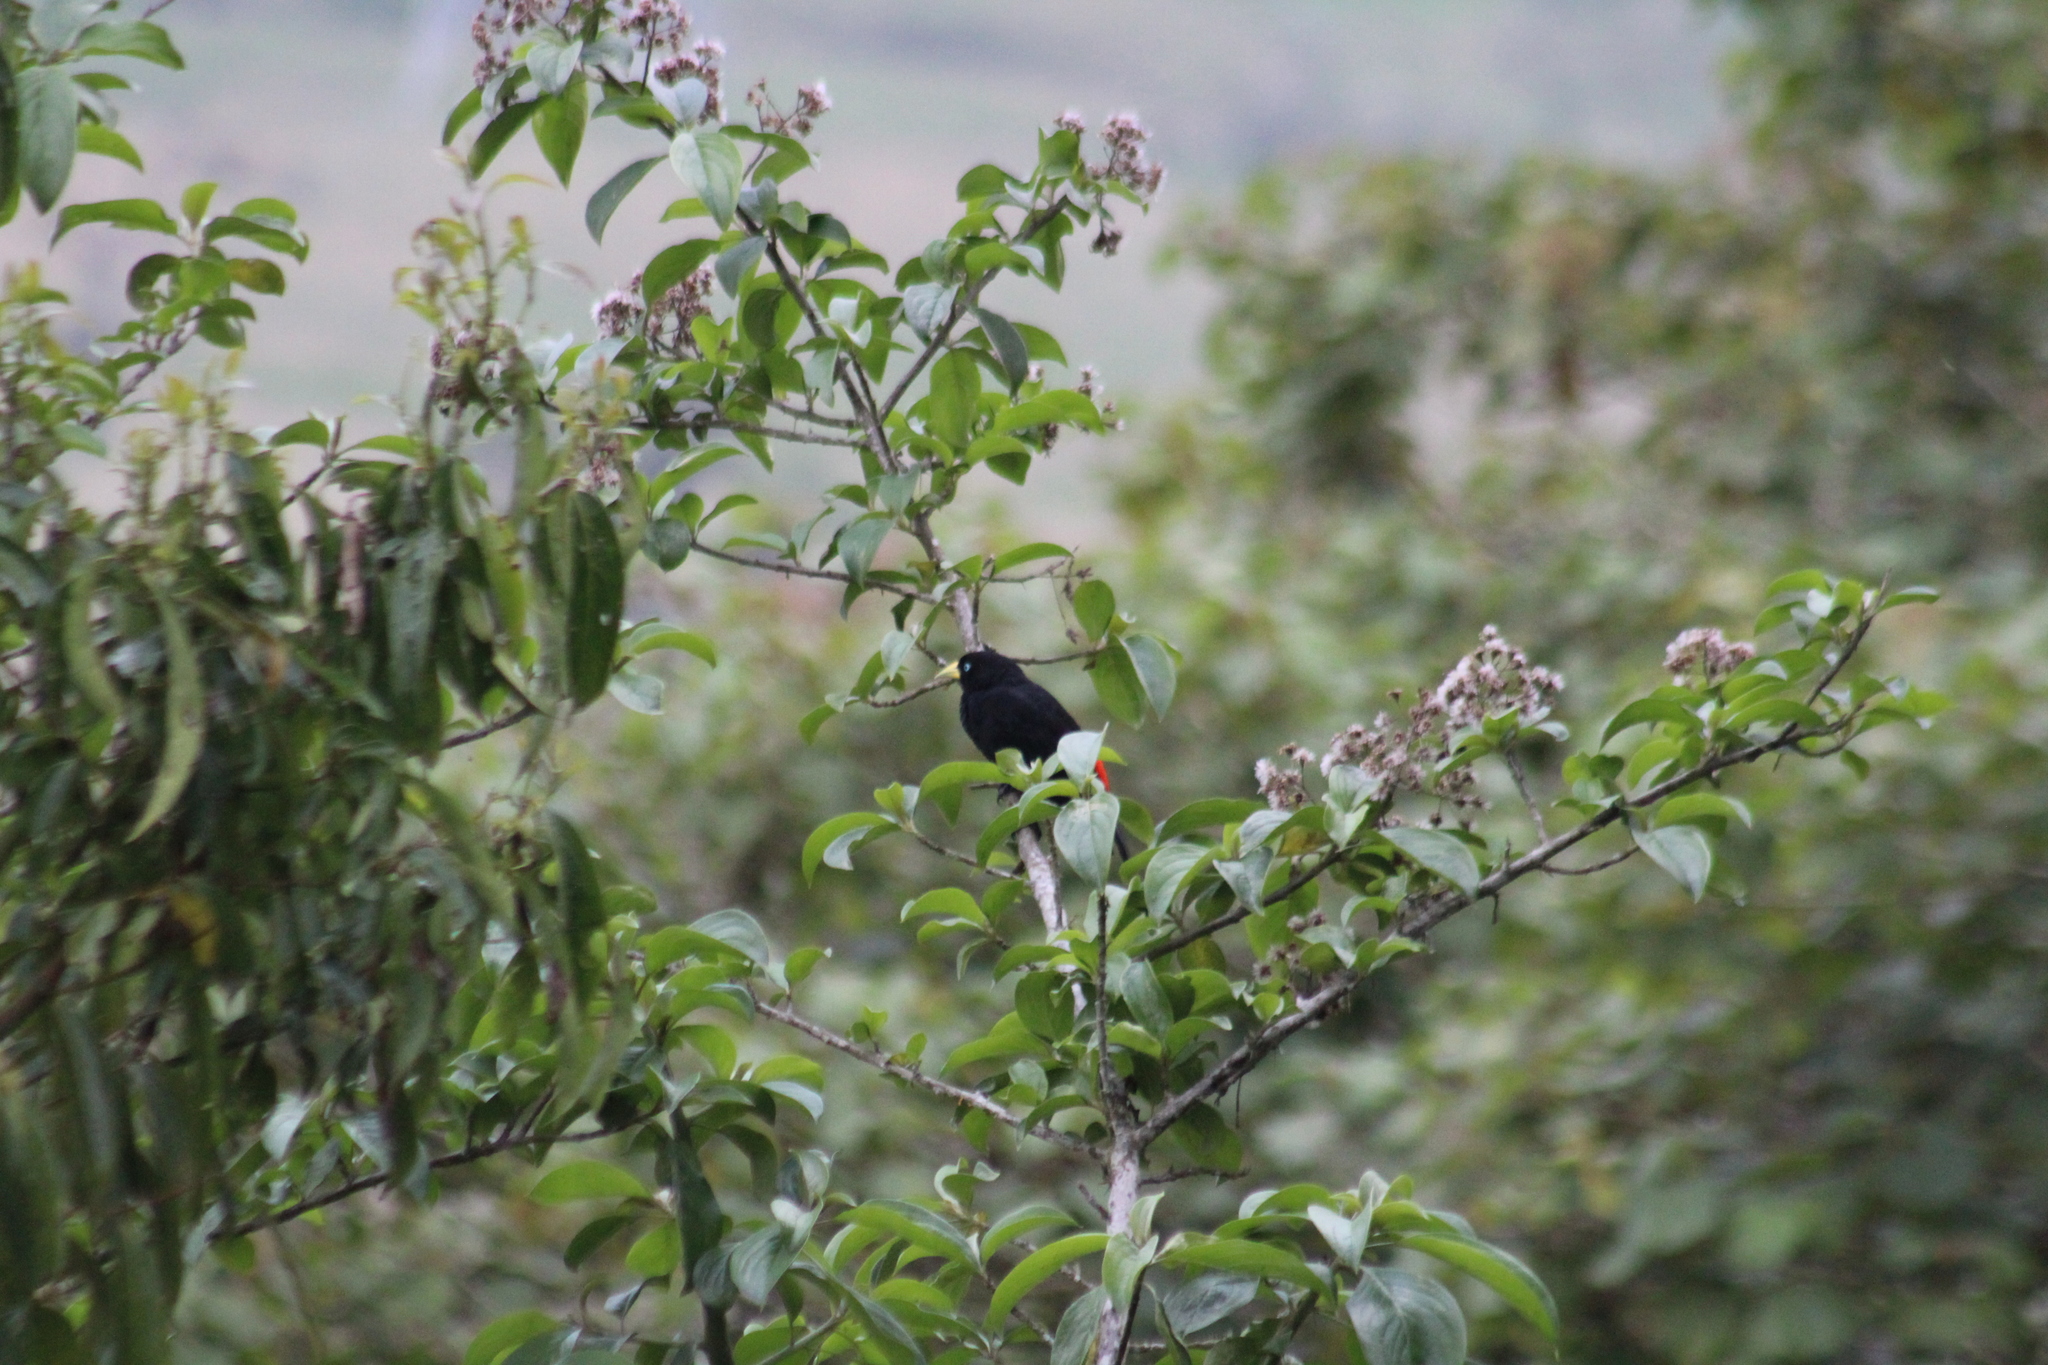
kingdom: Animalia
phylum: Chordata
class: Aves
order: Passeriformes
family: Icteridae
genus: Cacicus
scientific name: Cacicus uropygialis
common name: Scarlet-rumped cacique
